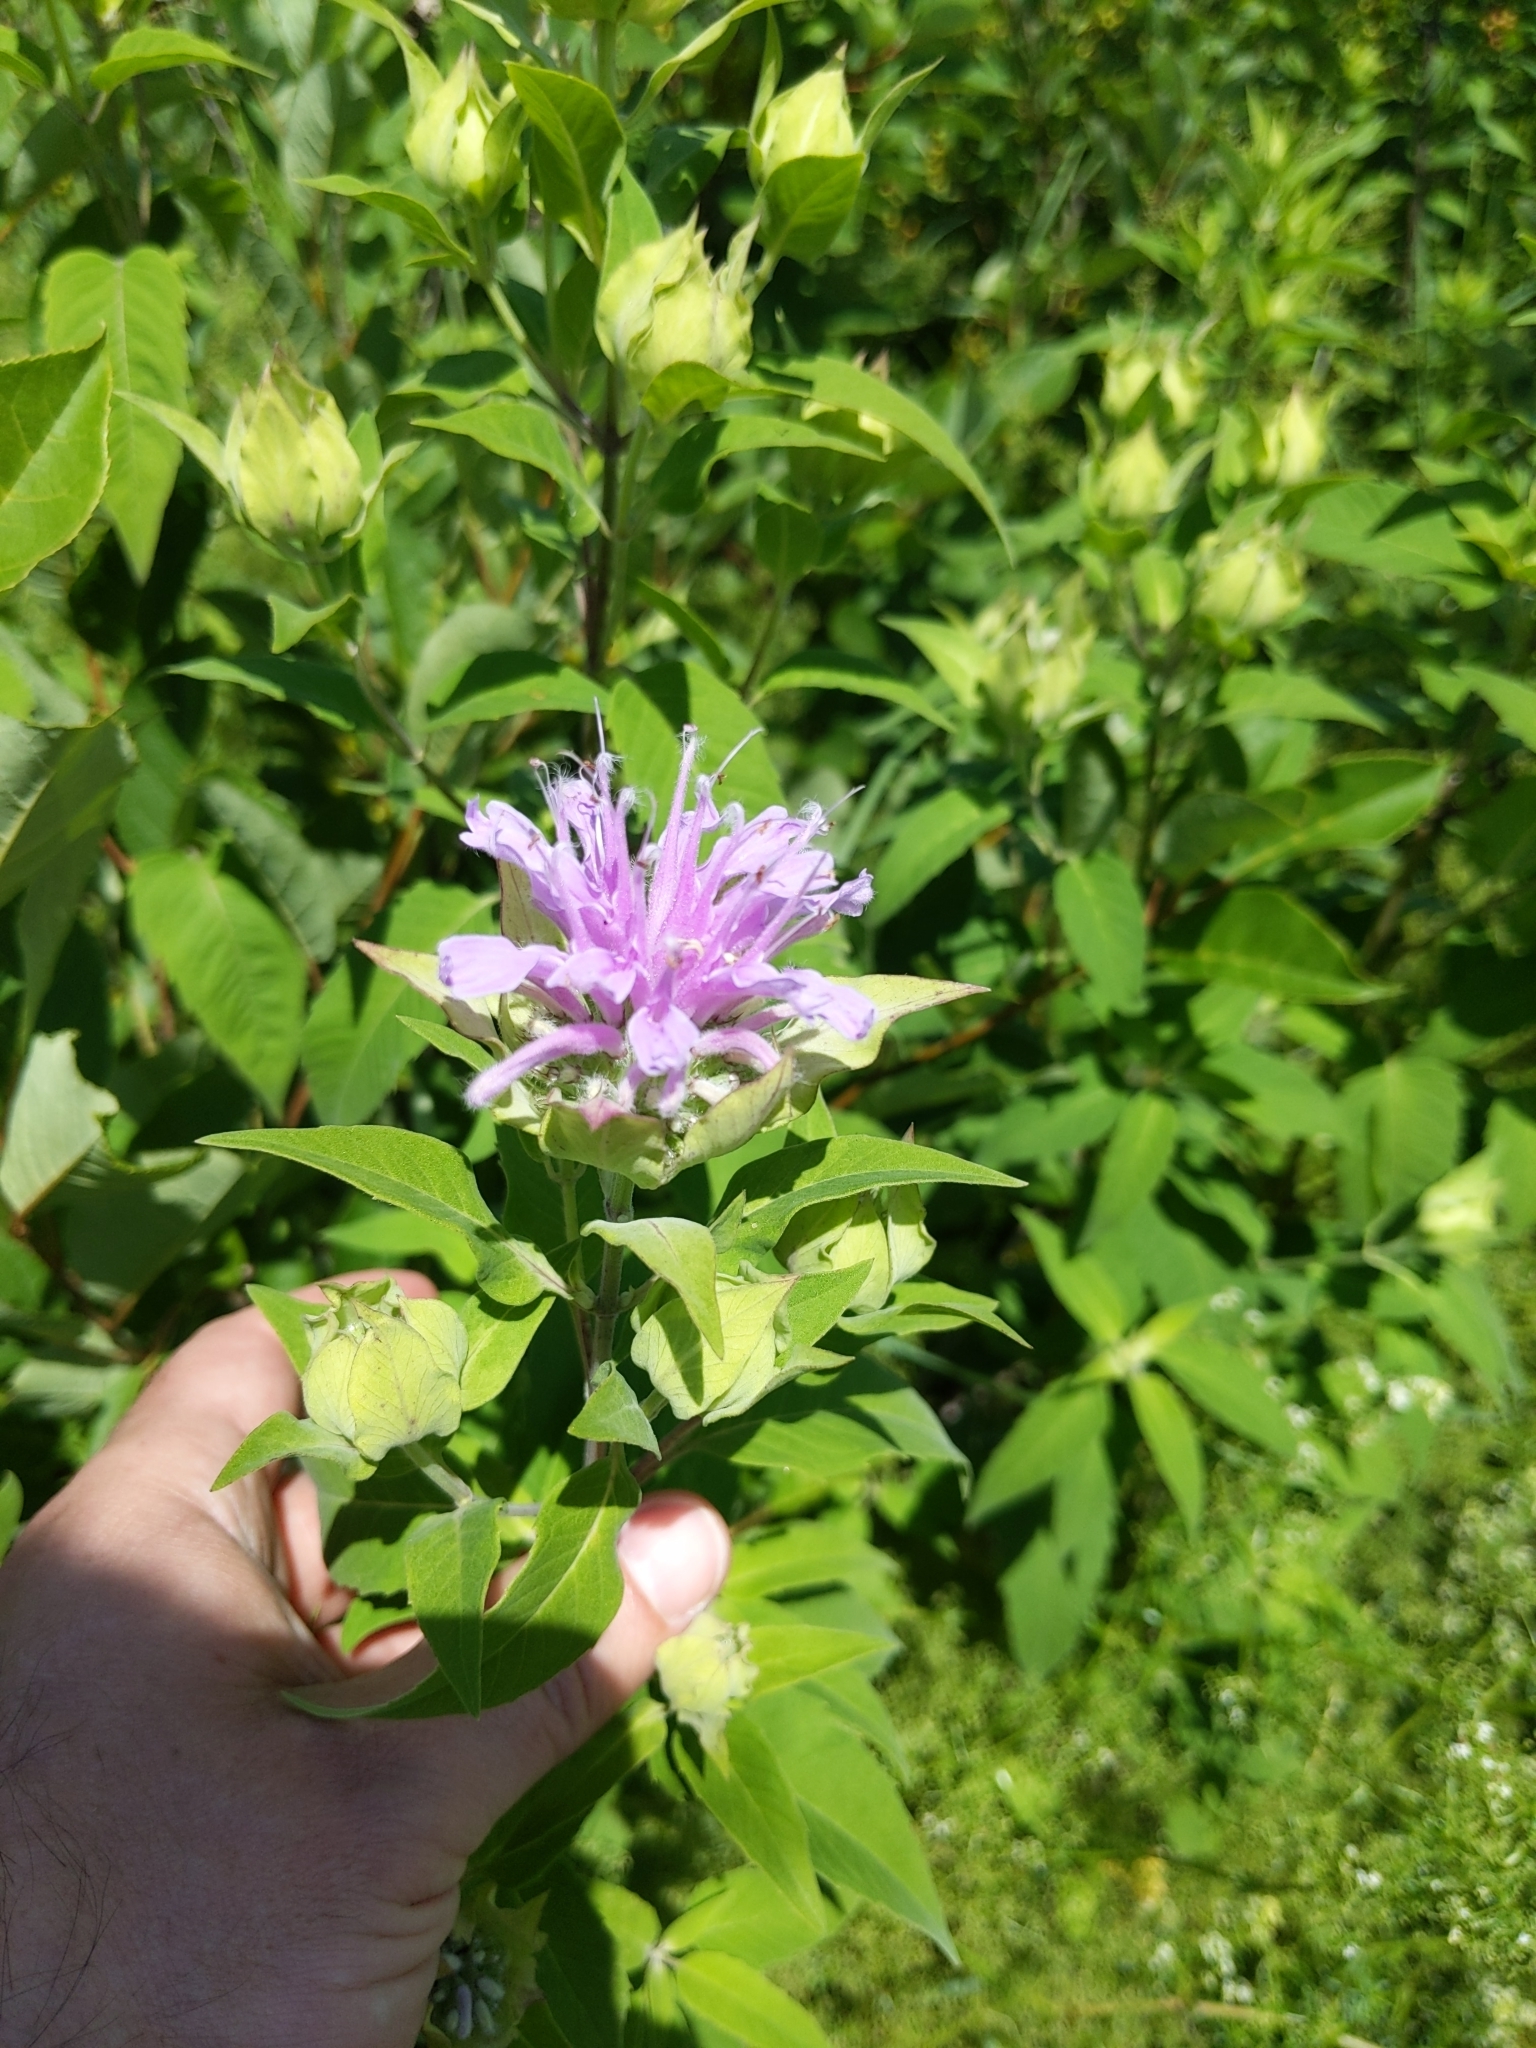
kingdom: Plantae
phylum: Tracheophyta
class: Magnoliopsida
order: Lamiales
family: Lamiaceae
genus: Monarda
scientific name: Monarda fistulosa
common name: Purple beebalm
